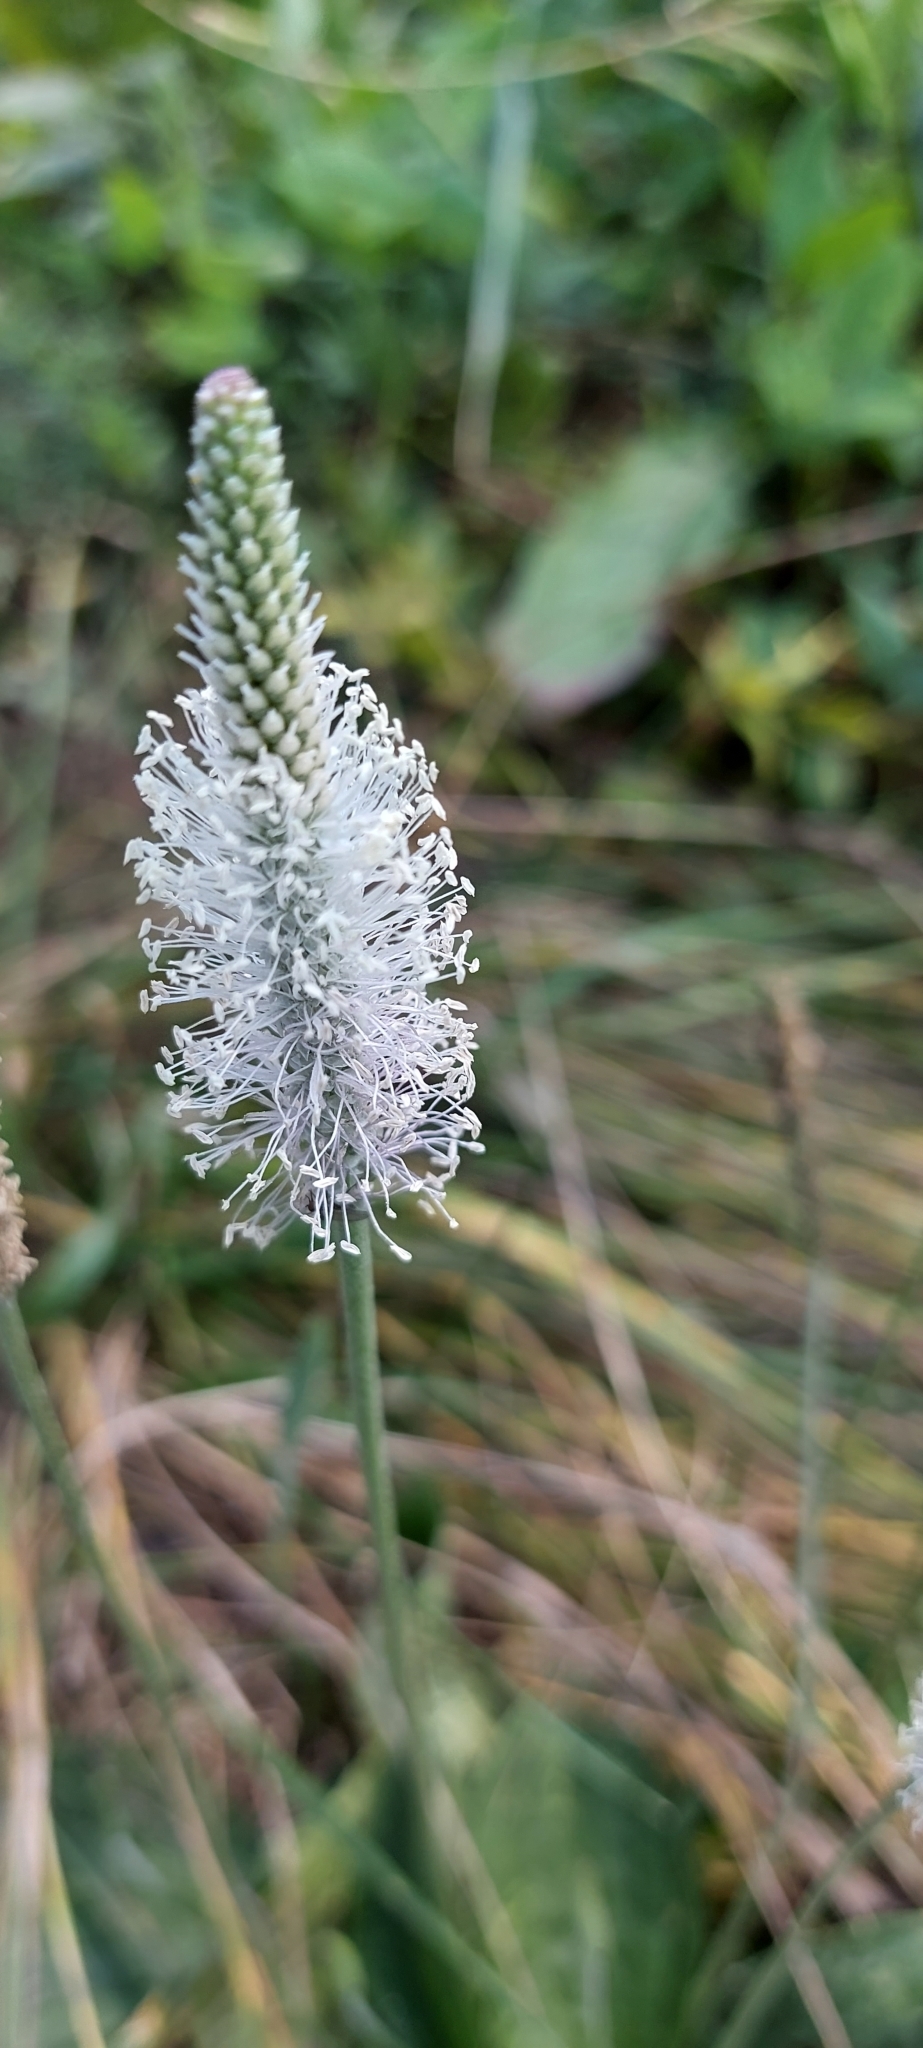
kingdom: Plantae
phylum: Tracheophyta
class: Magnoliopsida
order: Lamiales
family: Plantaginaceae
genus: Plantago
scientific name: Plantago media
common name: Hoary plantain
